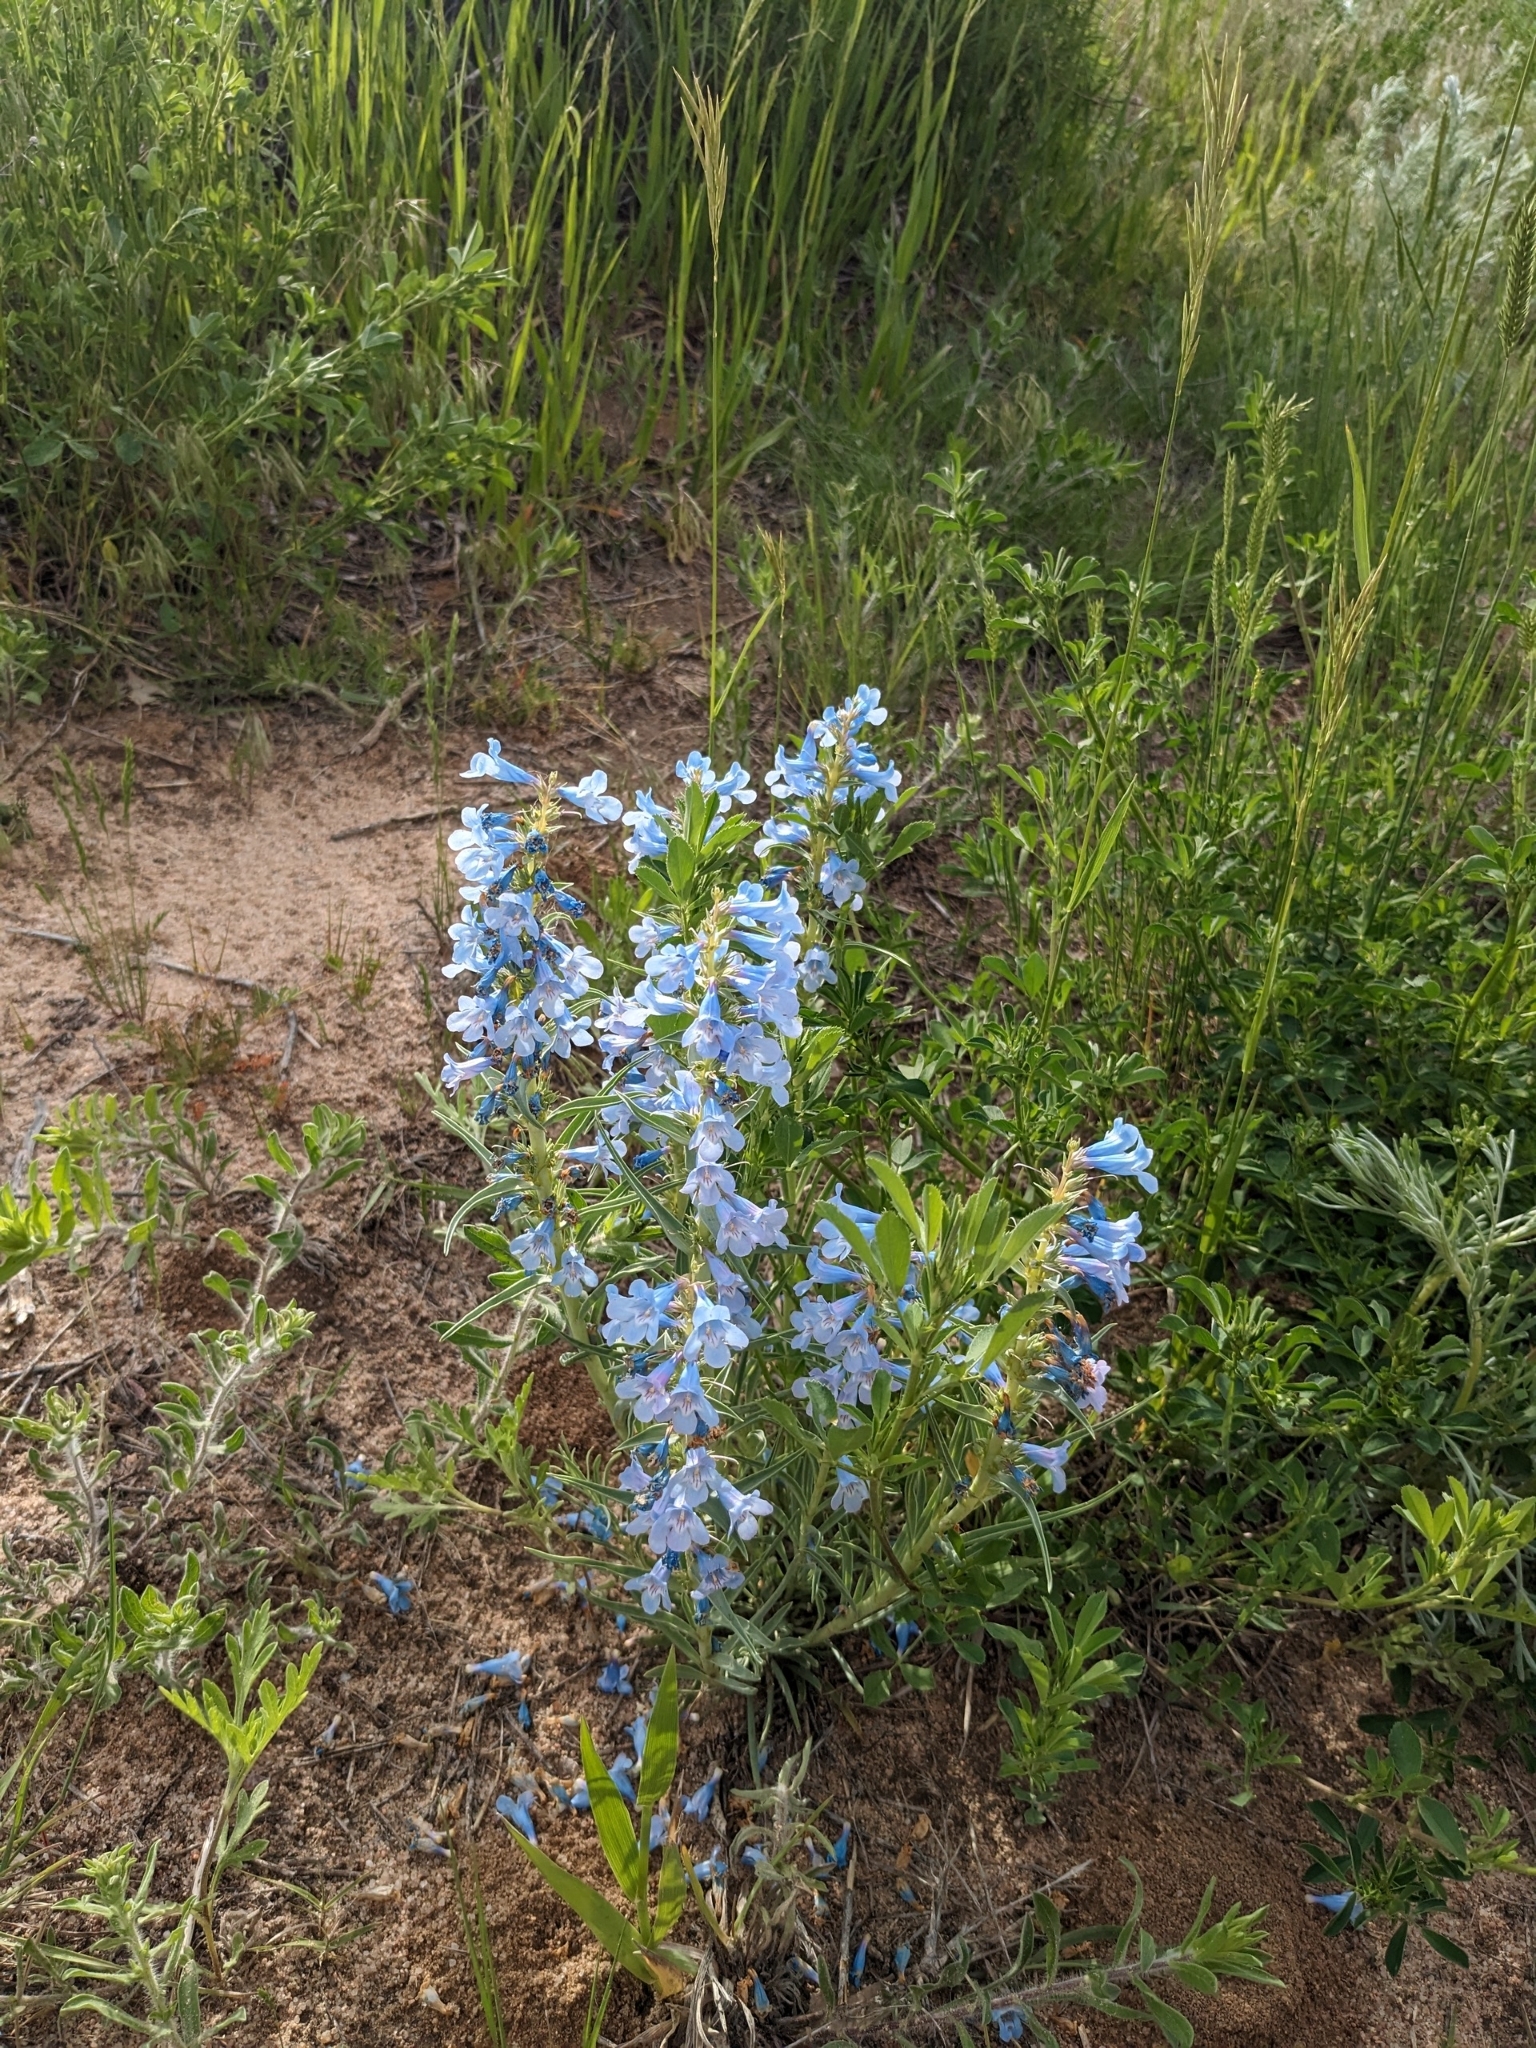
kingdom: Plantae
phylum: Tracheophyta
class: Magnoliopsida
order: Lamiales
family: Plantaginaceae
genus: Penstemon
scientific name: Penstemon angustifolius
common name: Narrow beardtongue
